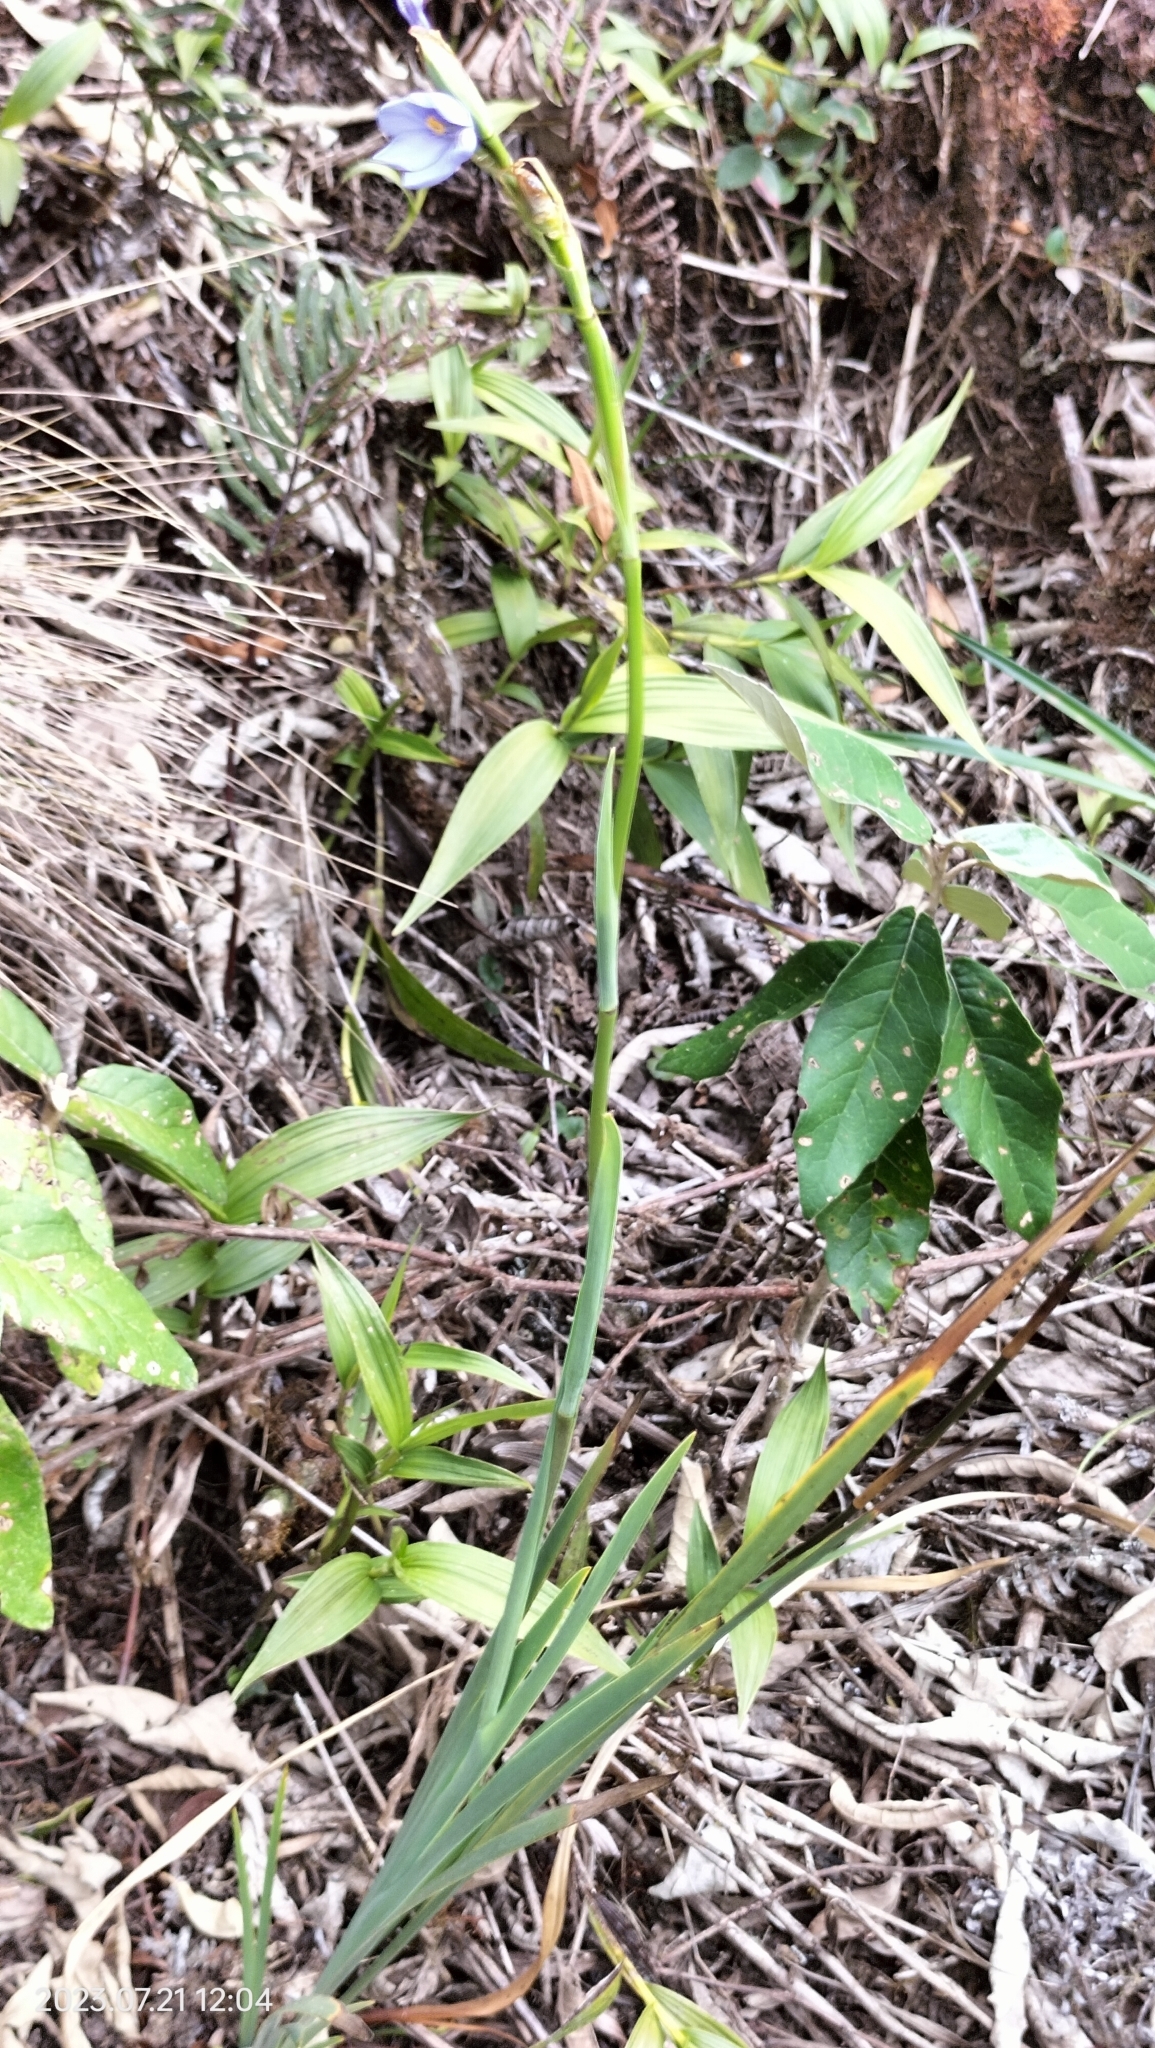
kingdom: Plantae
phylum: Tracheophyta
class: Liliopsida
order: Asparagales
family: Iridaceae
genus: Orthrosanthus
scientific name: Orthrosanthus chimboracensis
